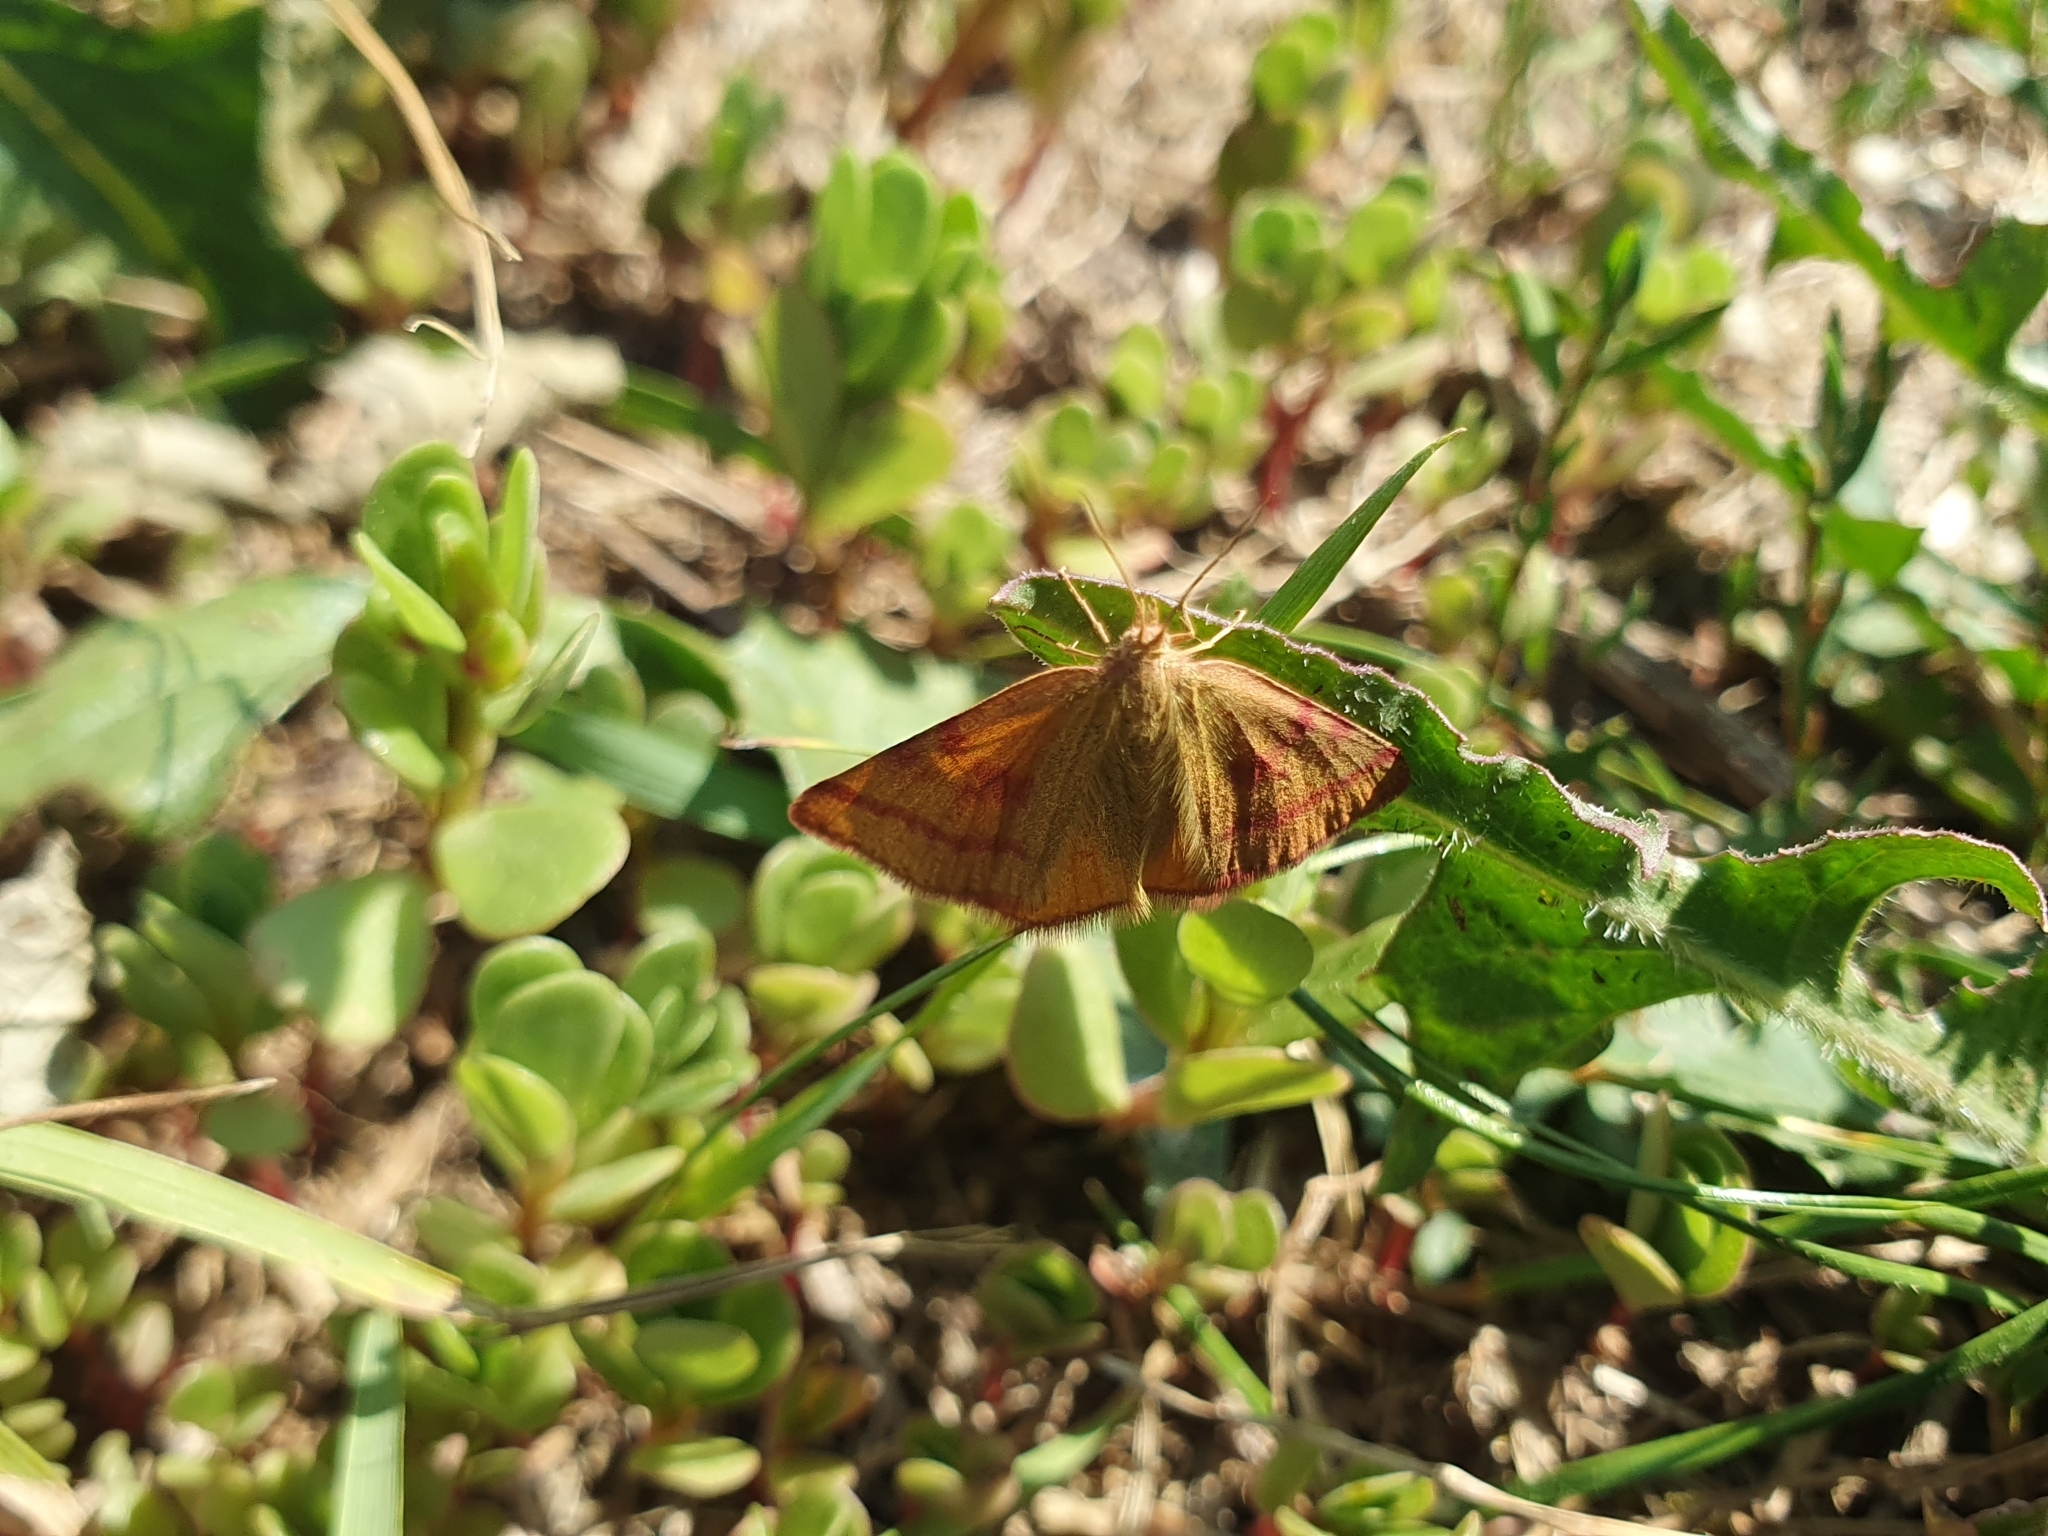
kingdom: Animalia
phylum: Arthropoda
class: Insecta
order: Lepidoptera
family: Geometridae
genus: Lythria
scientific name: Lythria purpuraria
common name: Purple-barred yellow
